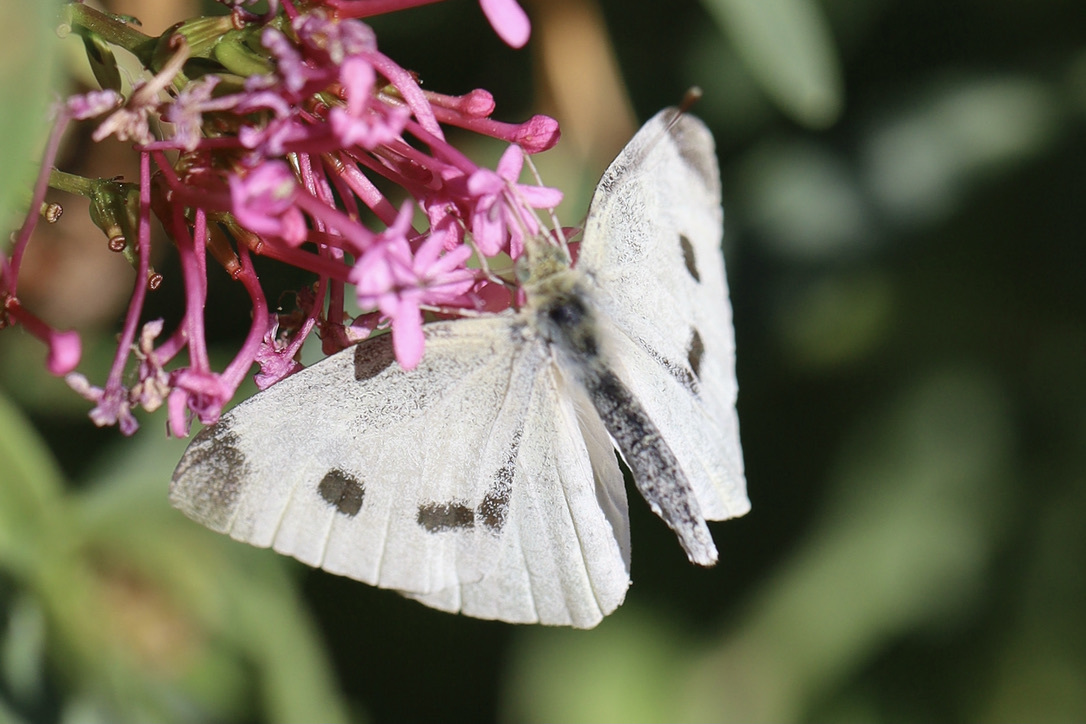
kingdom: Animalia
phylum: Arthropoda
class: Insecta
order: Lepidoptera
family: Pieridae
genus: Pieris
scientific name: Pieris rapae
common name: Small white
